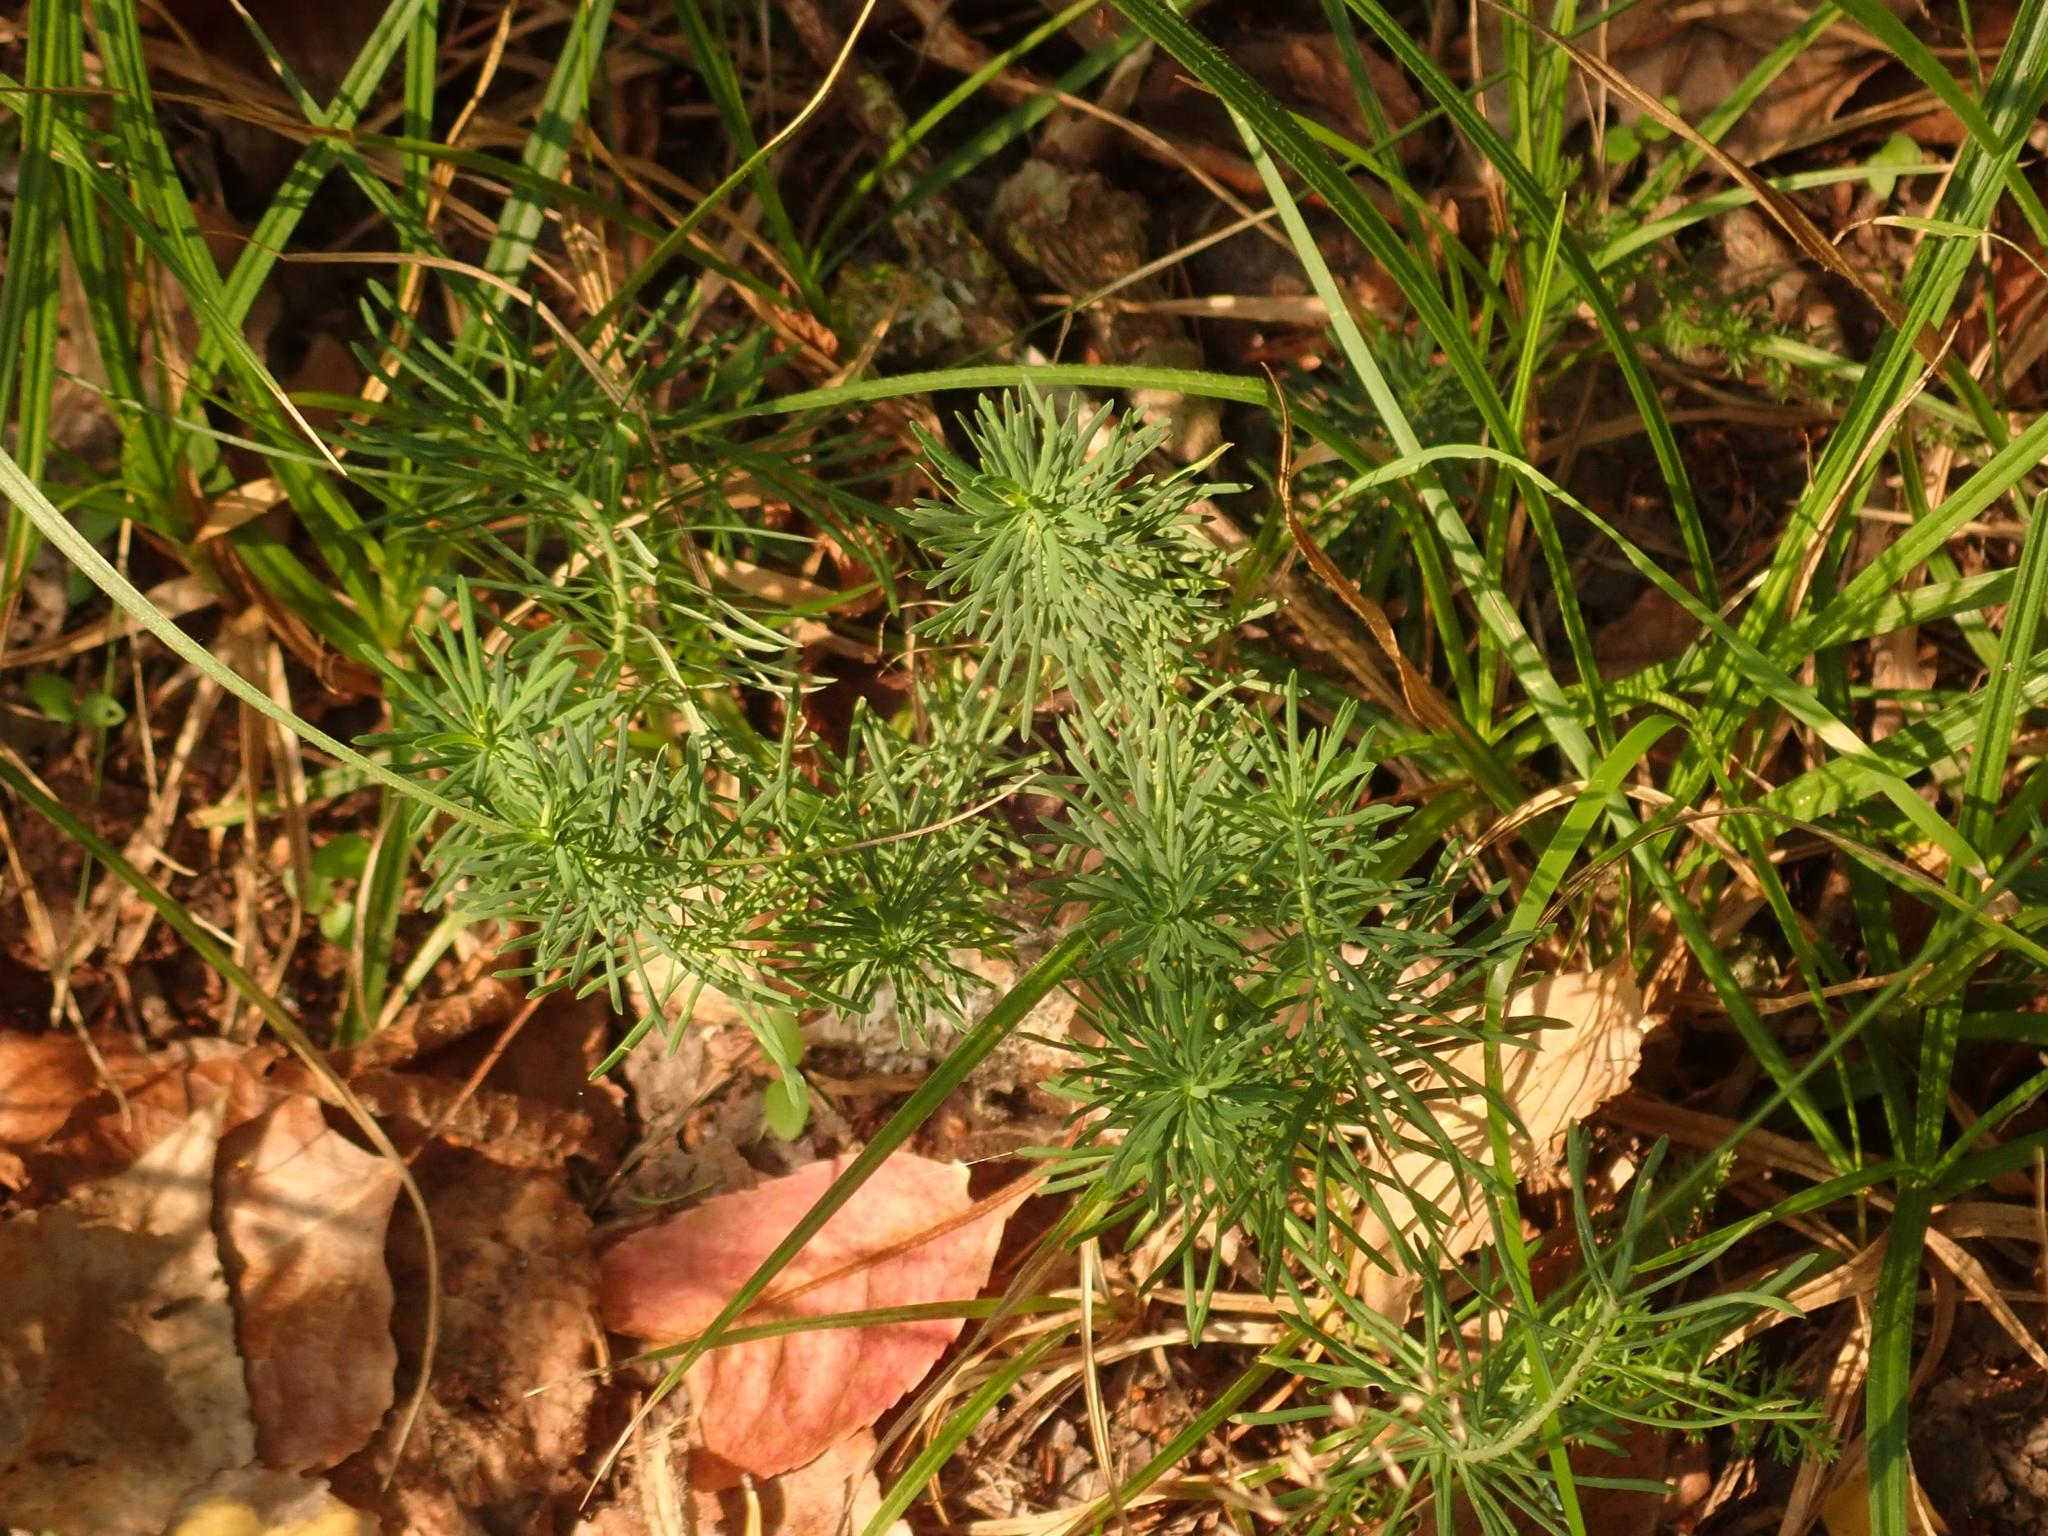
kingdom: Plantae
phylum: Tracheophyta
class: Magnoliopsida
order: Malpighiales
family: Euphorbiaceae
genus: Euphorbia
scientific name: Euphorbia cyparissias
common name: Cypress spurge
